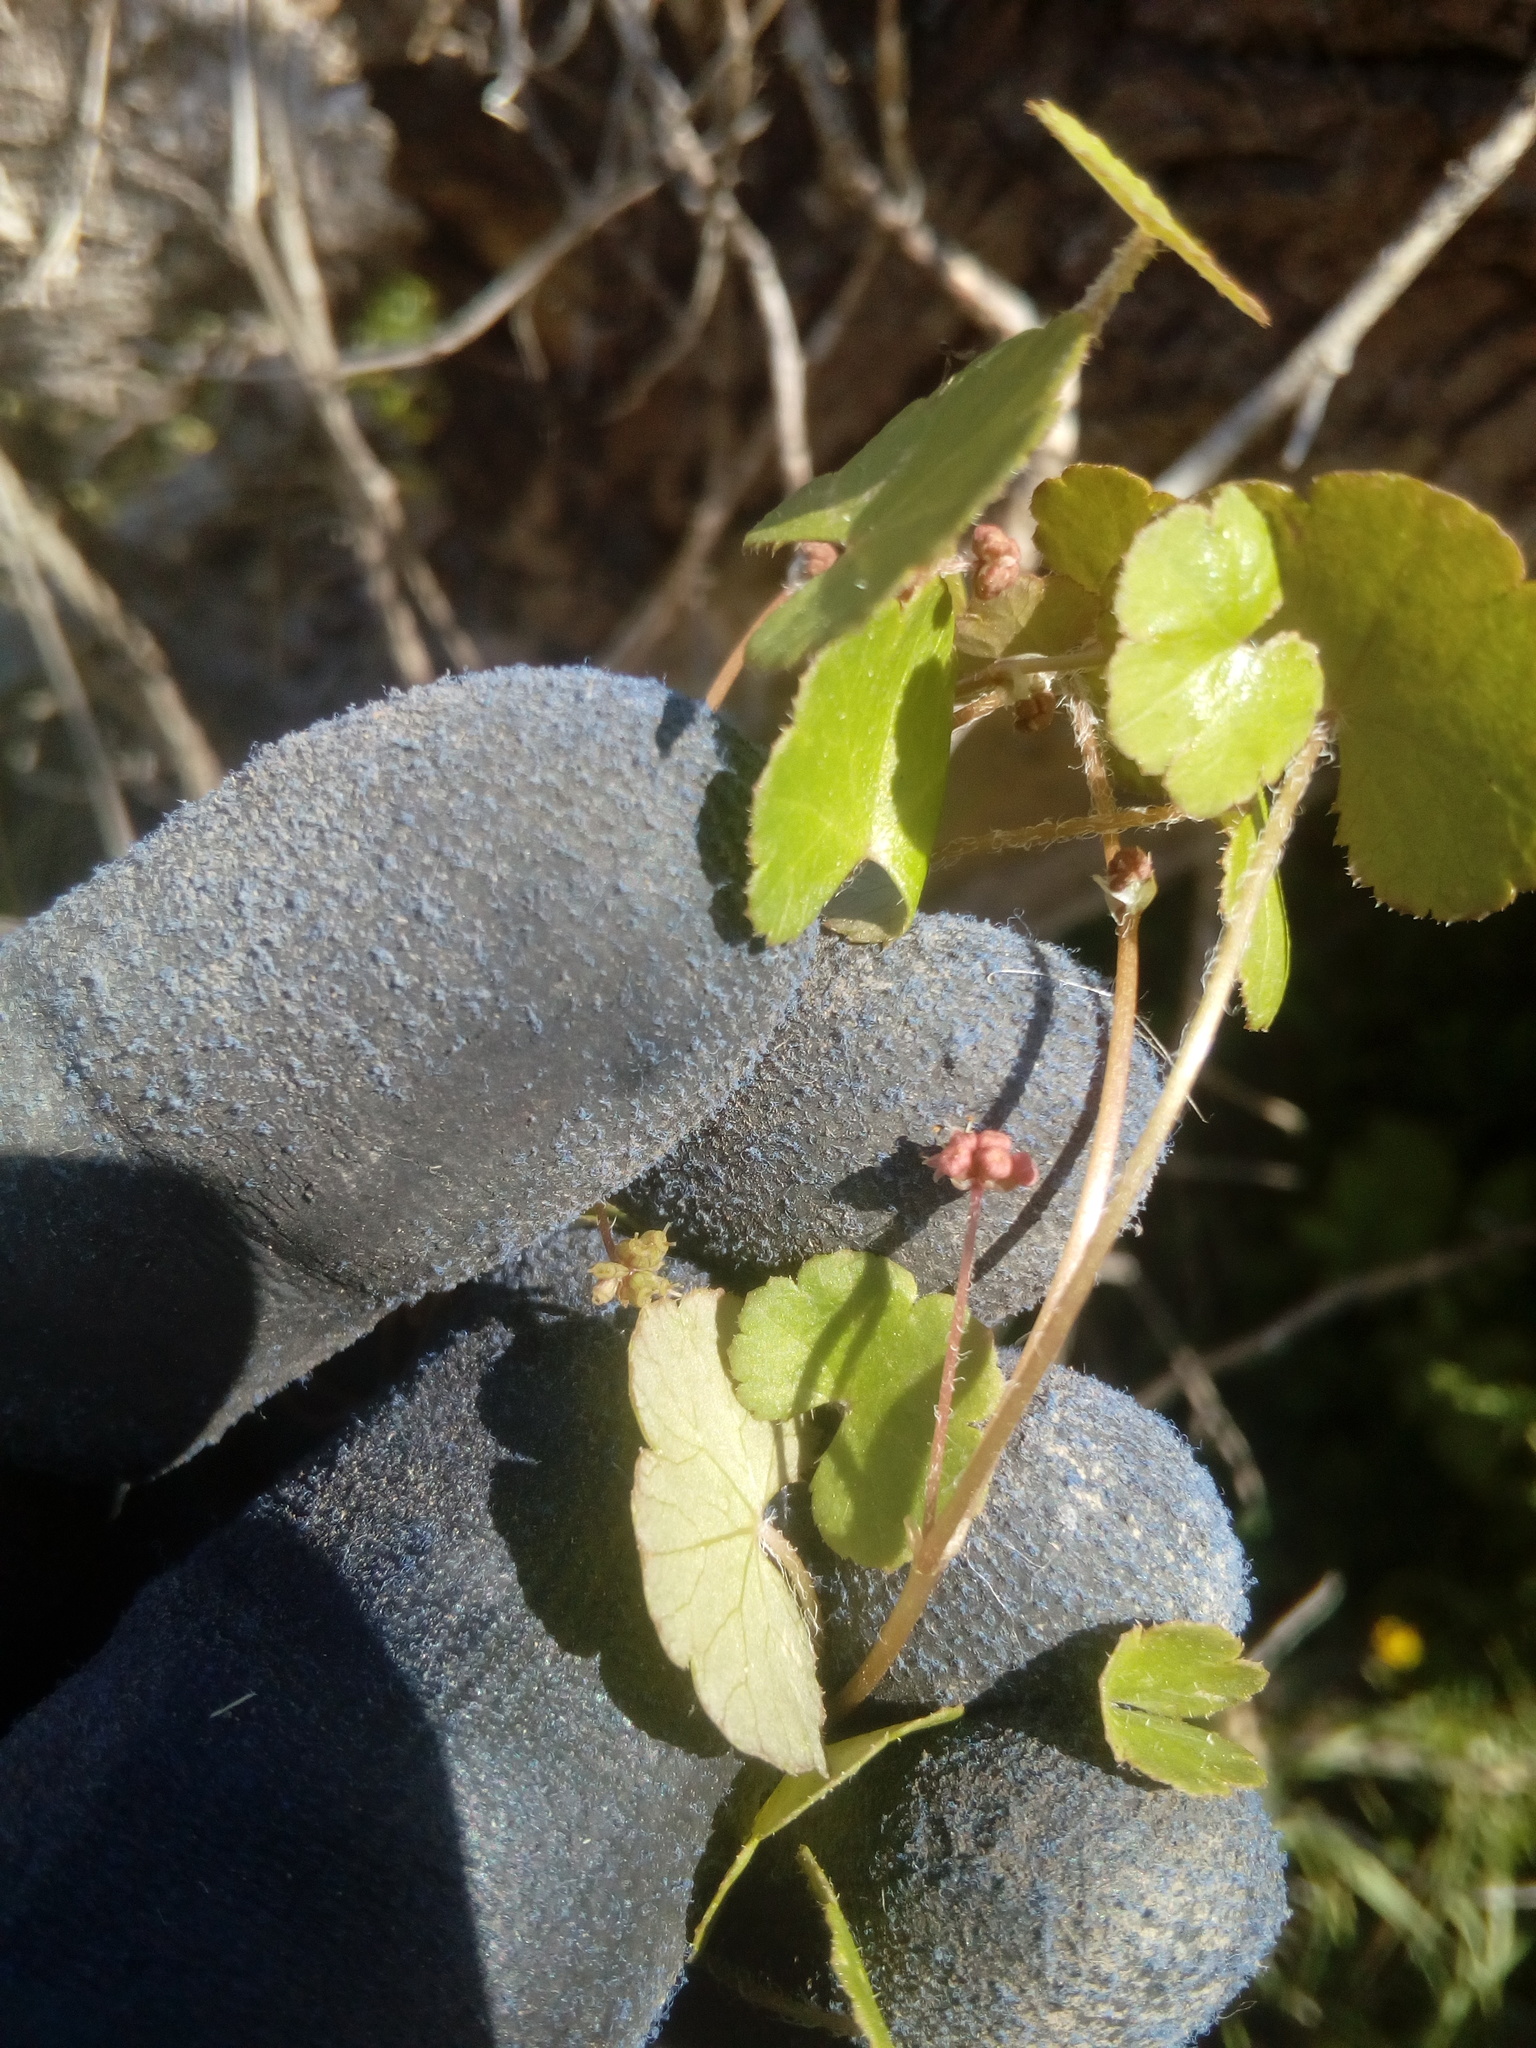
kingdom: Plantae
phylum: Tracheophyta
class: Magnoliopsida
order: Apiales
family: Araliaceae
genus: Hydrocotyle
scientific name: Hydrocotyle novae-zeelandiae
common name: New zealand pennywort
